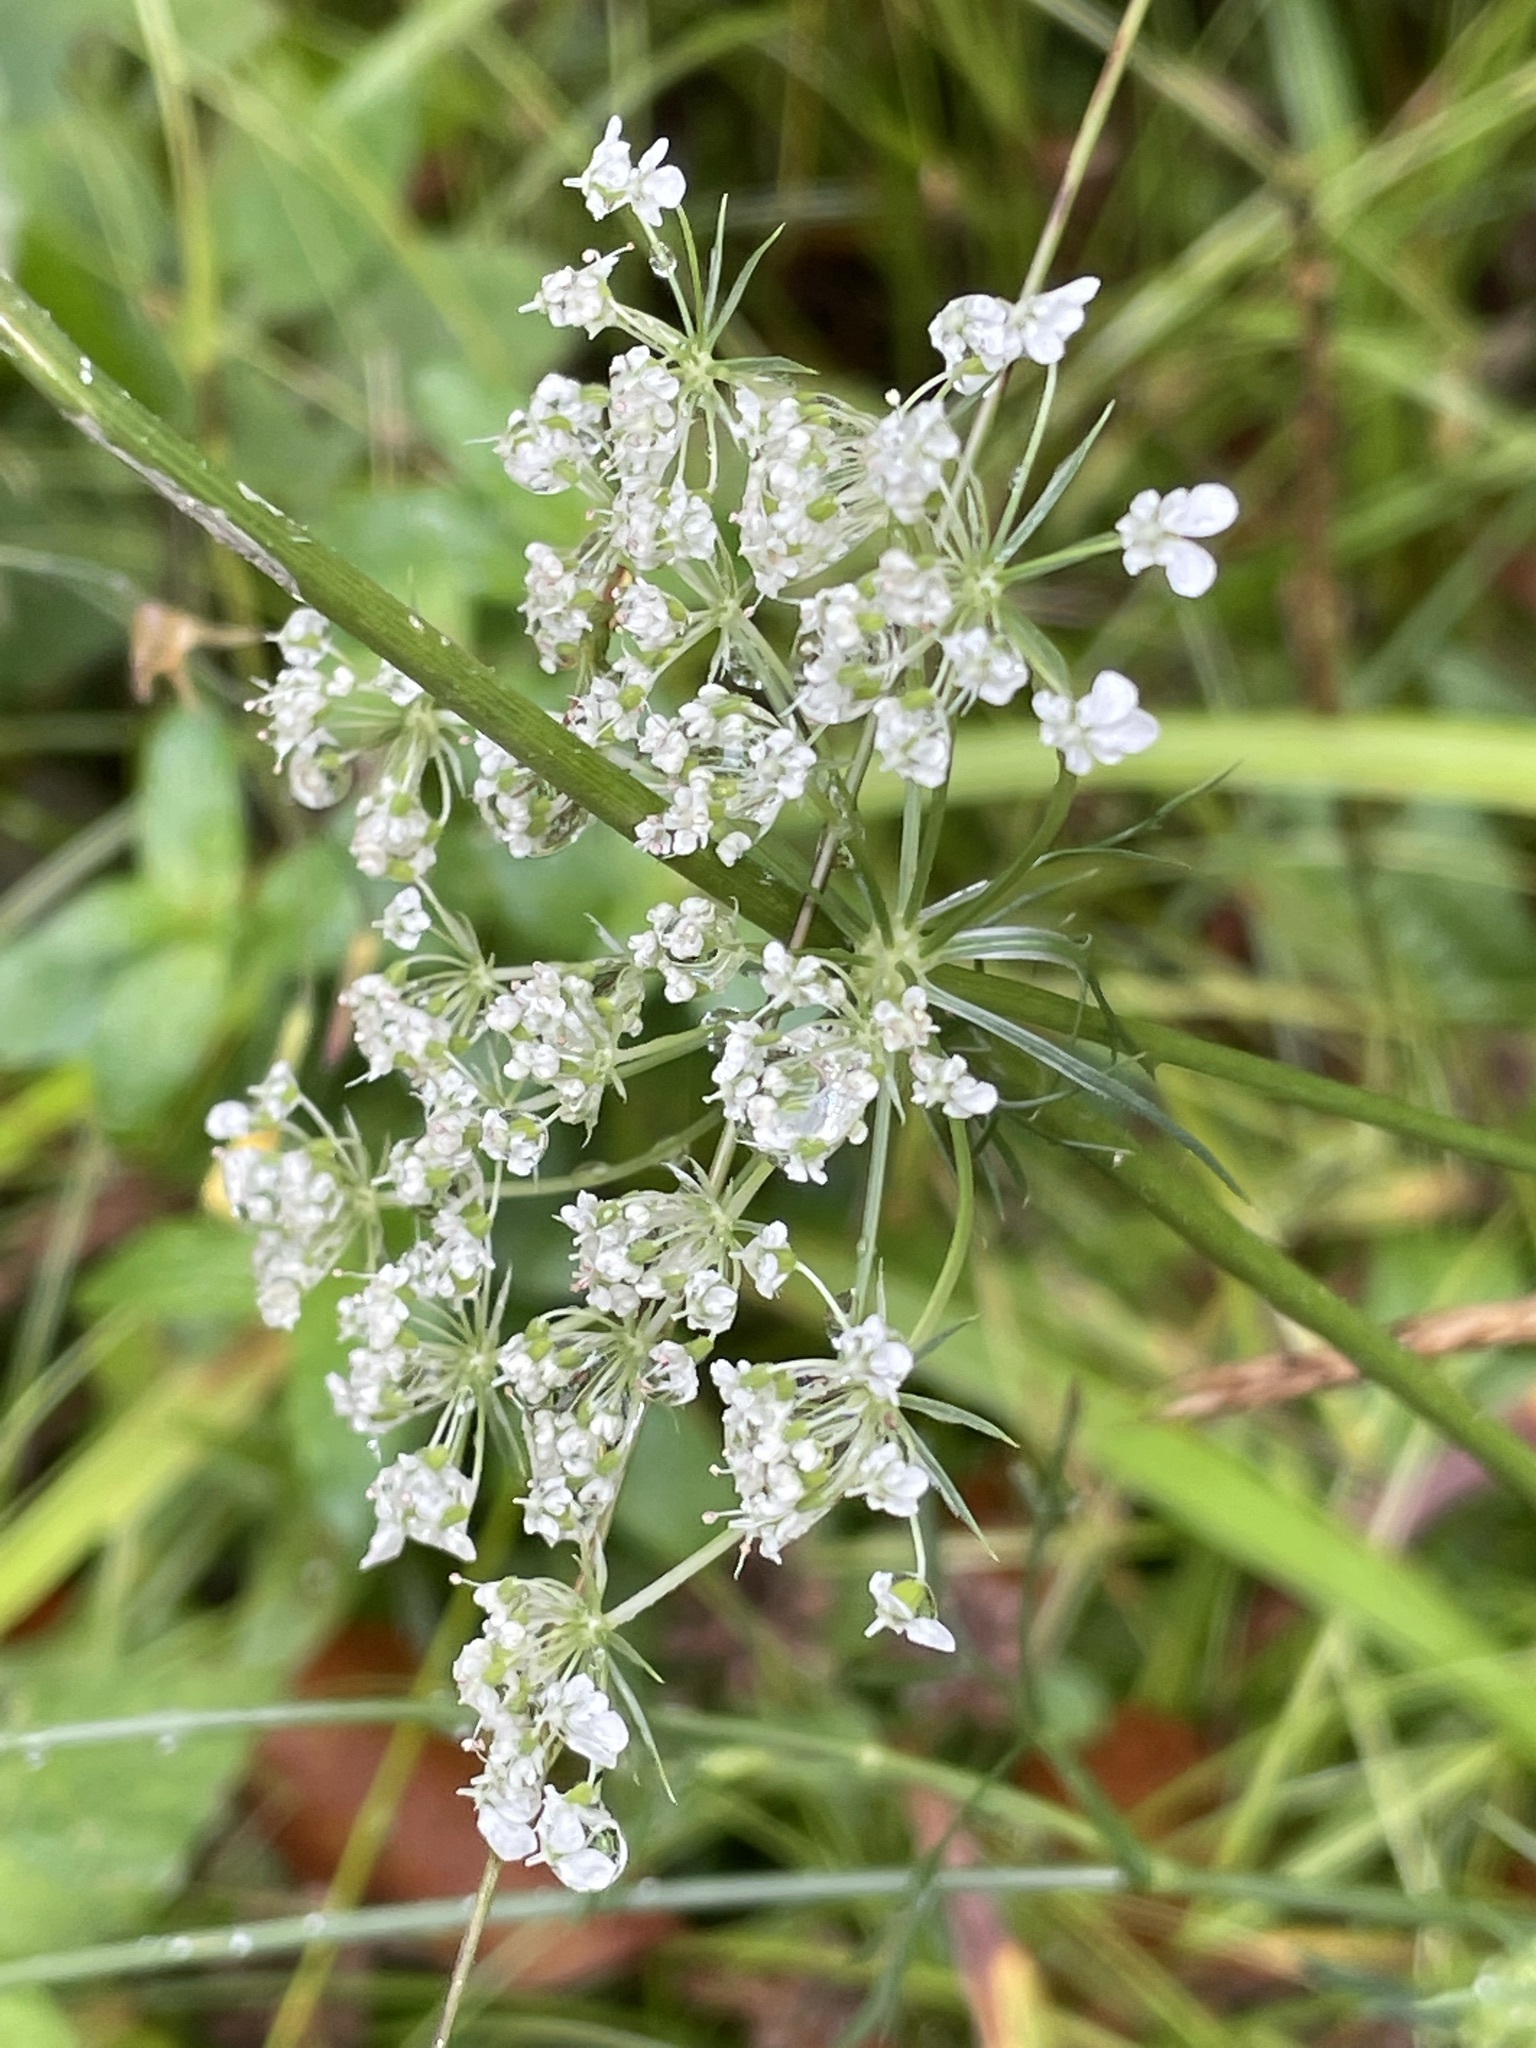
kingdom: Plantae
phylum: Tracheophyta
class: Magnoliopsida
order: Apiales
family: Apiaceae
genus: Daucus
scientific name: Daucus carota
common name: Wild carrot
